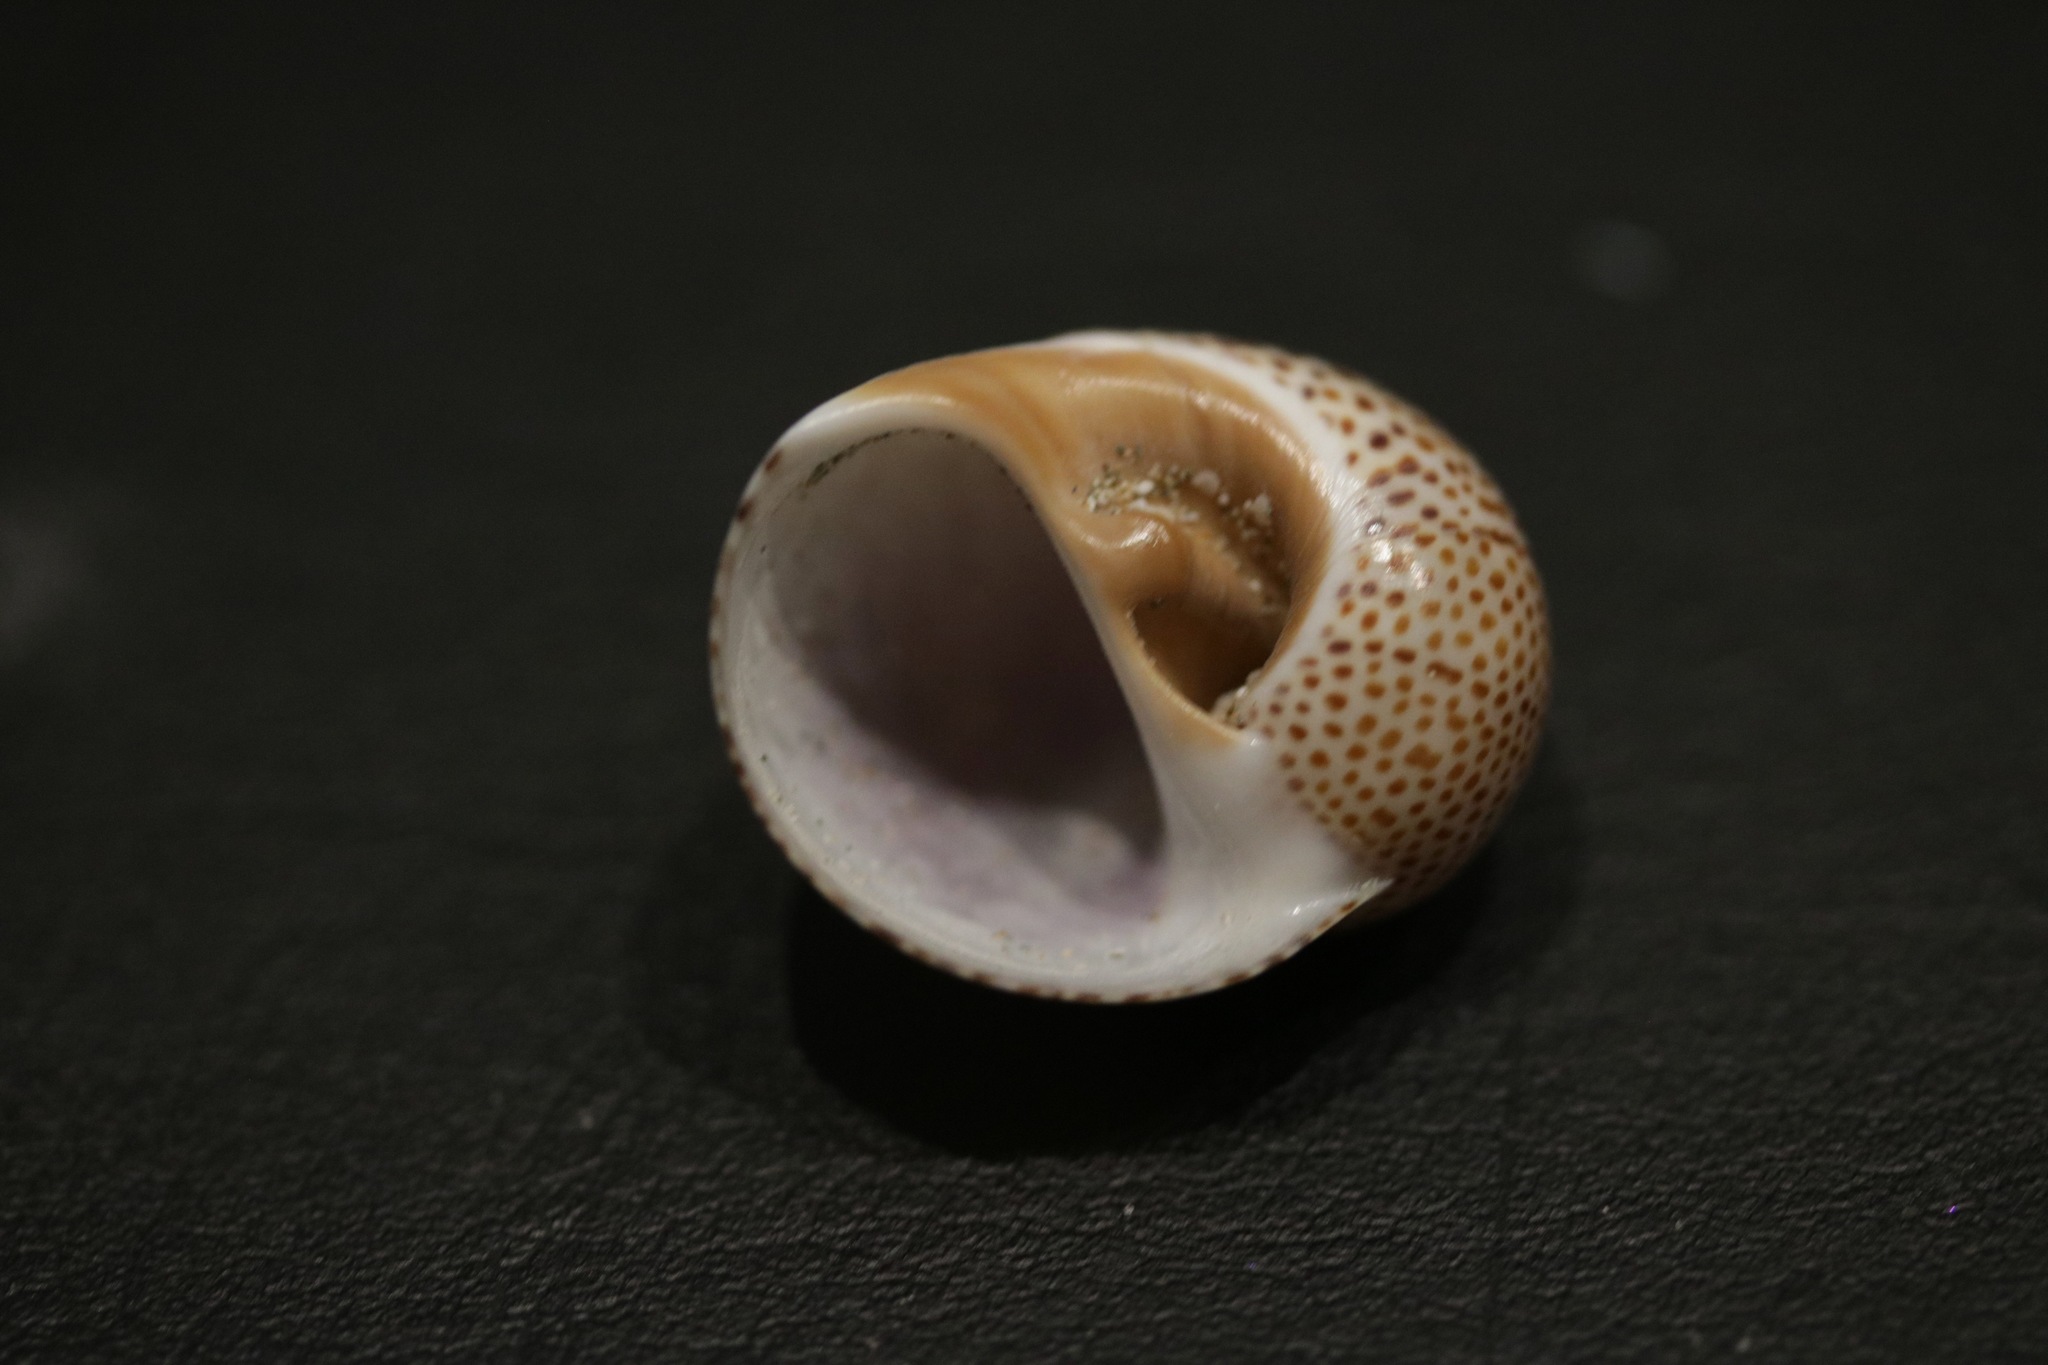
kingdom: Animalia
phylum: Mollusca
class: Gastropoda
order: Littorinimorpha
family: Naticidae
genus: Naticarius
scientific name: Naticarius stercusmuscarum
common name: Fly-speck moonsnail
